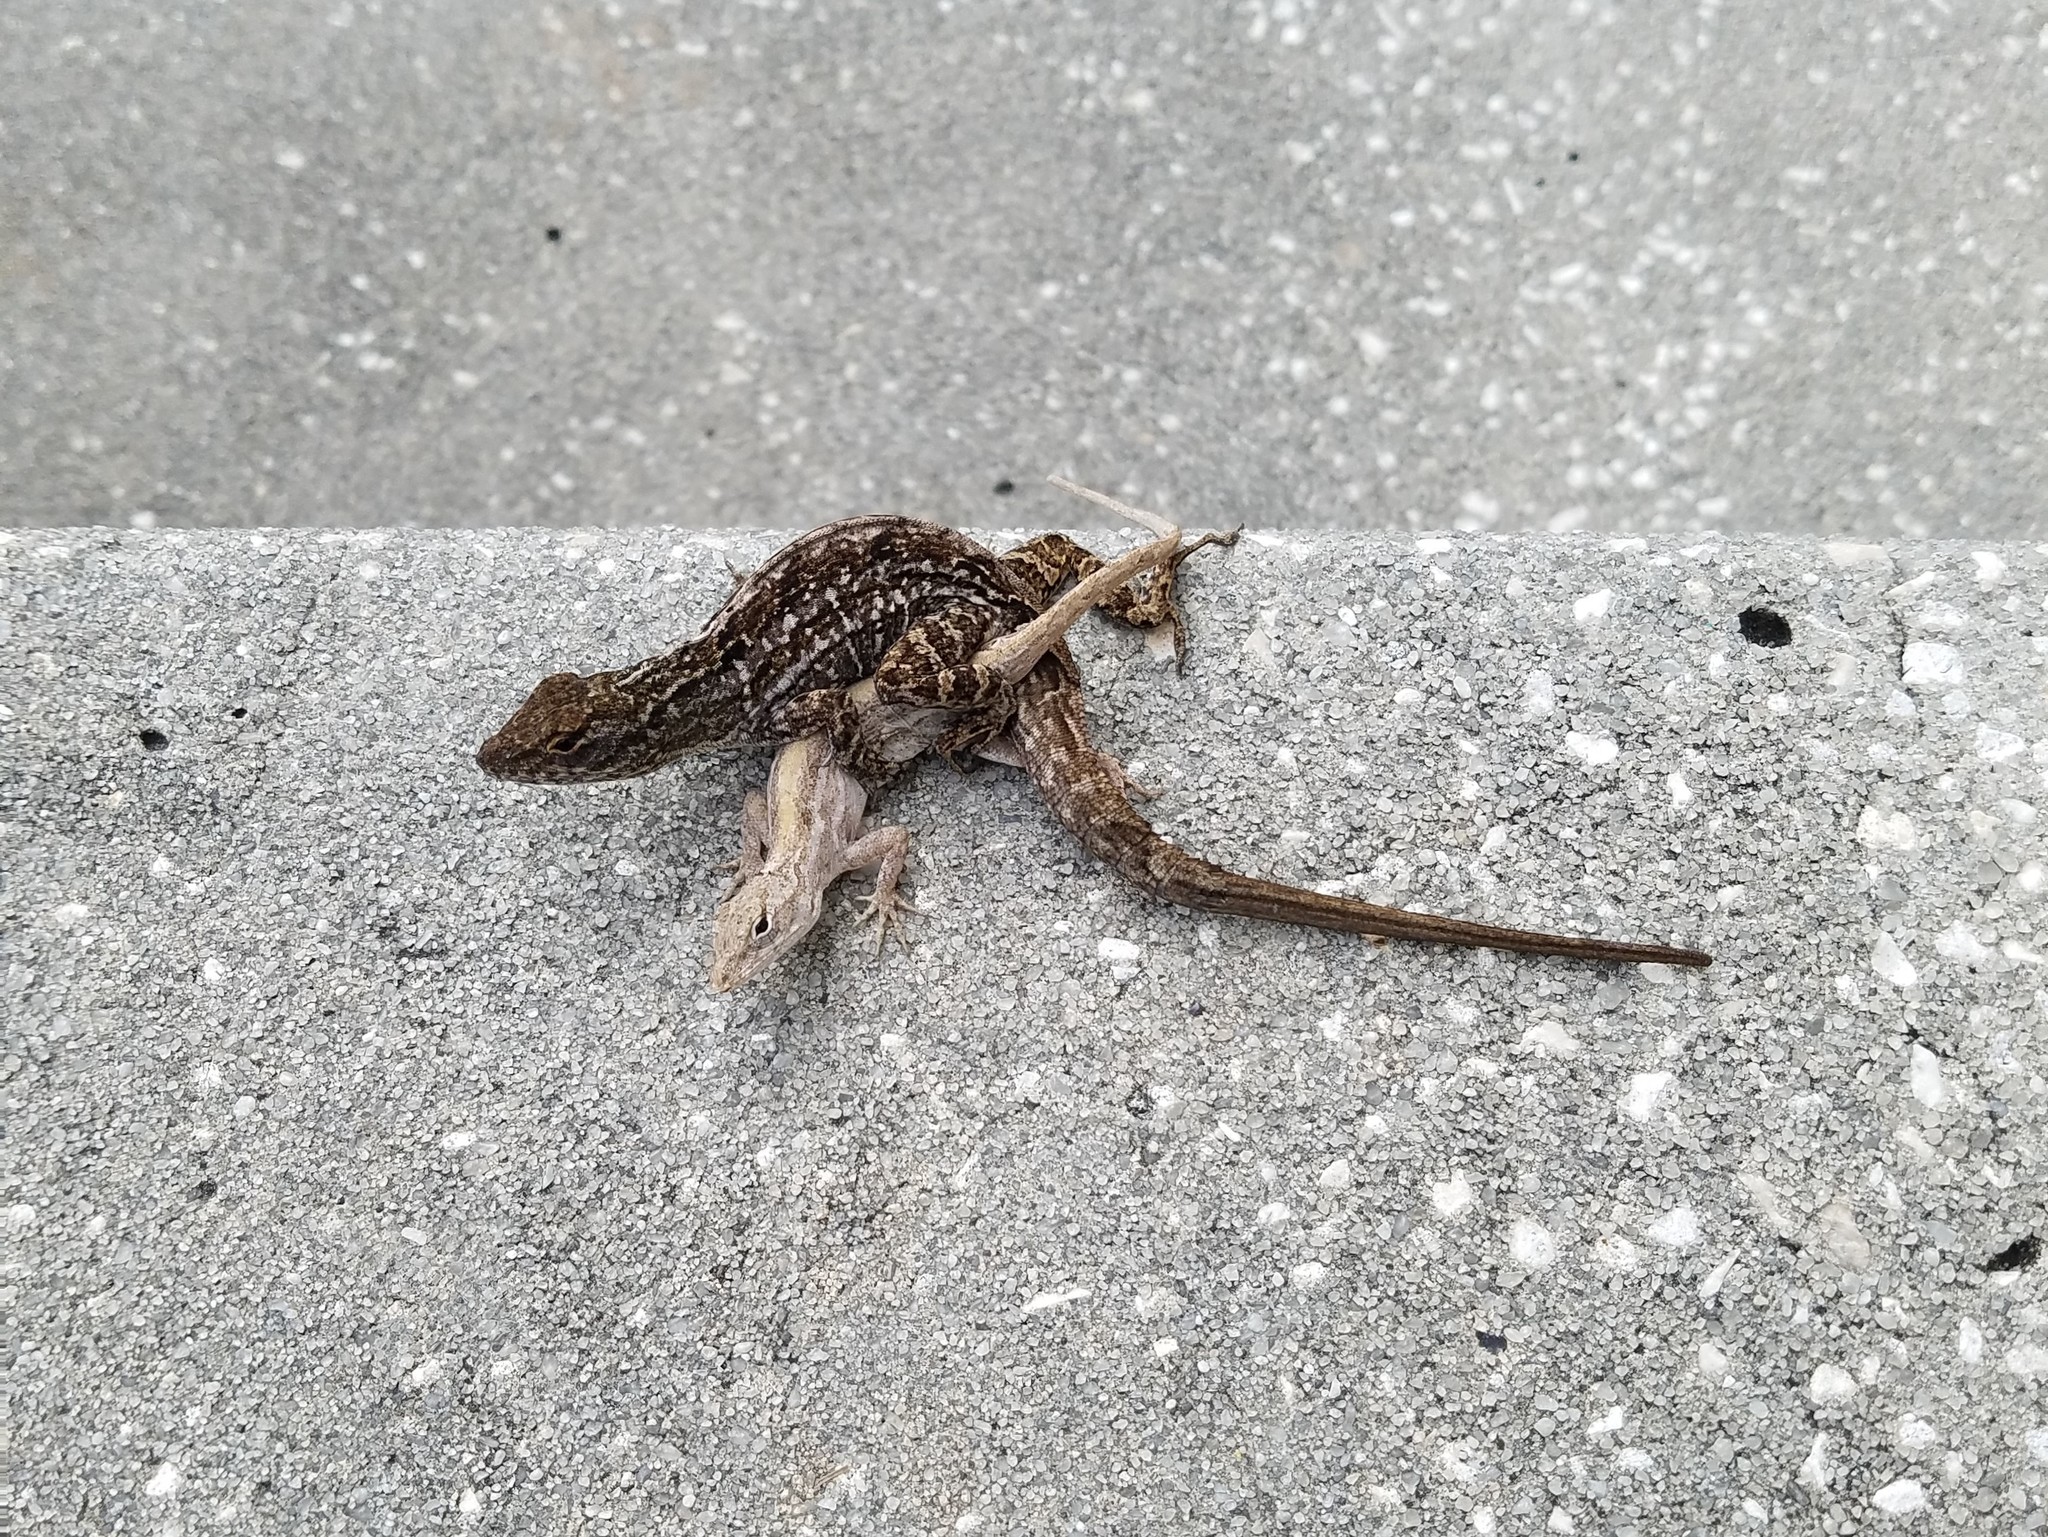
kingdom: Animalia
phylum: Chordata
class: Squamata
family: Dactyloidae
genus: Anolis
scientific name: Anolis sagrei
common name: Brown anole
